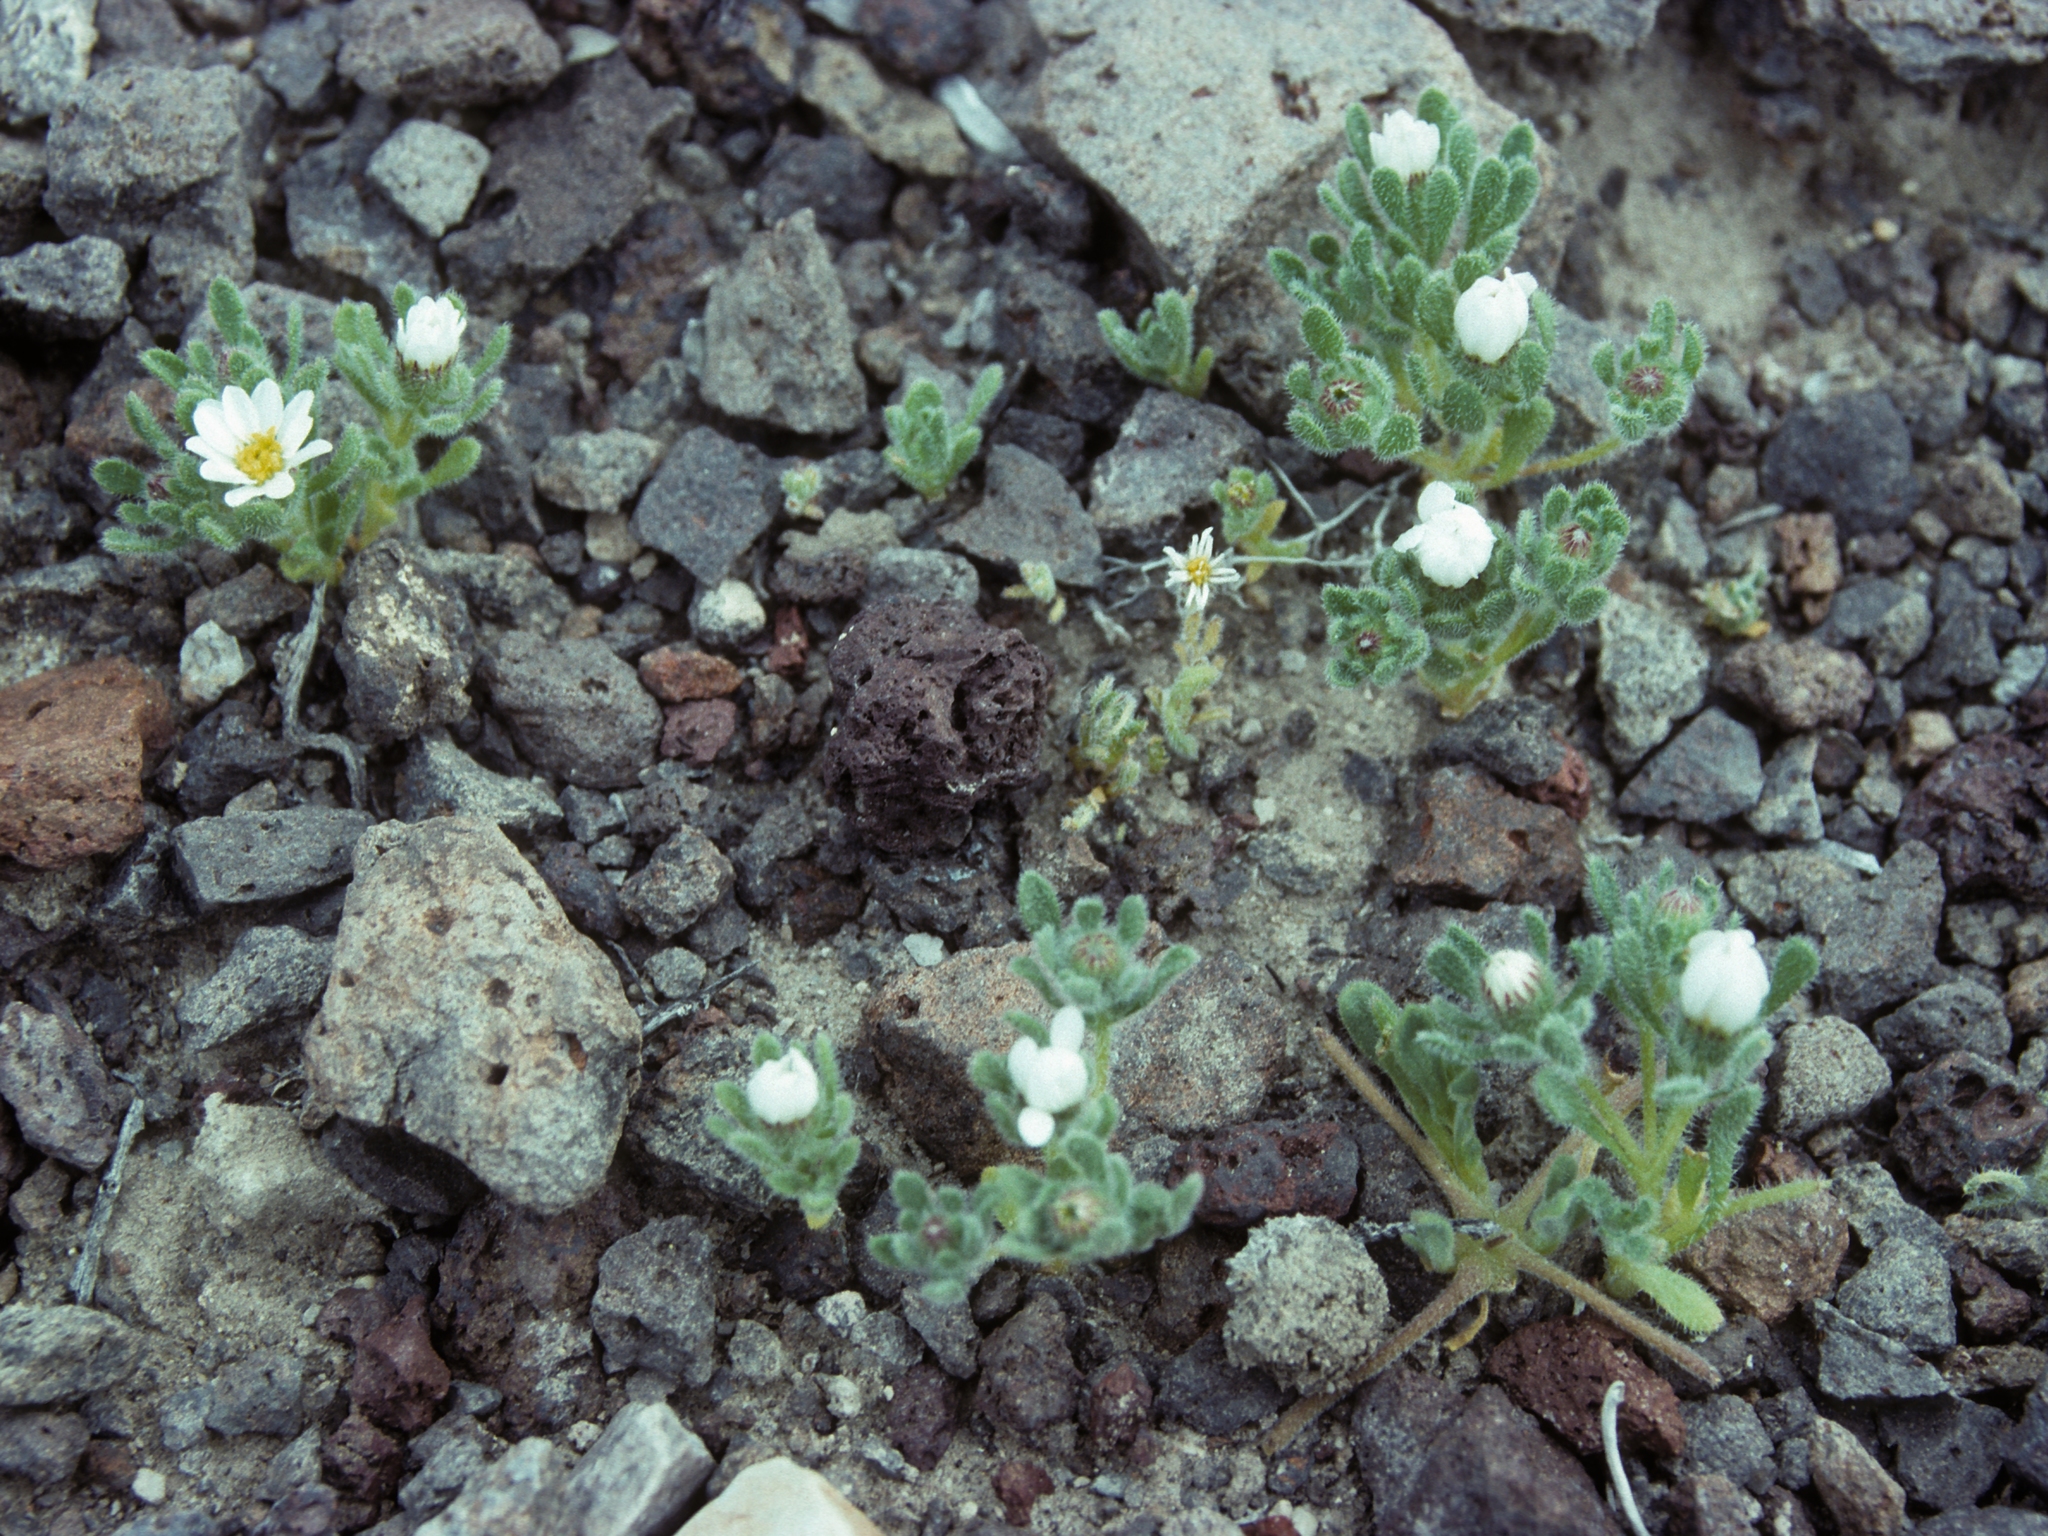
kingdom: Plantae
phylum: Tracheophyta
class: Magnoliopsida
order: Asterales
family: Asteraceae
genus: Monoptilon
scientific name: Monoptilon bellidiforme
